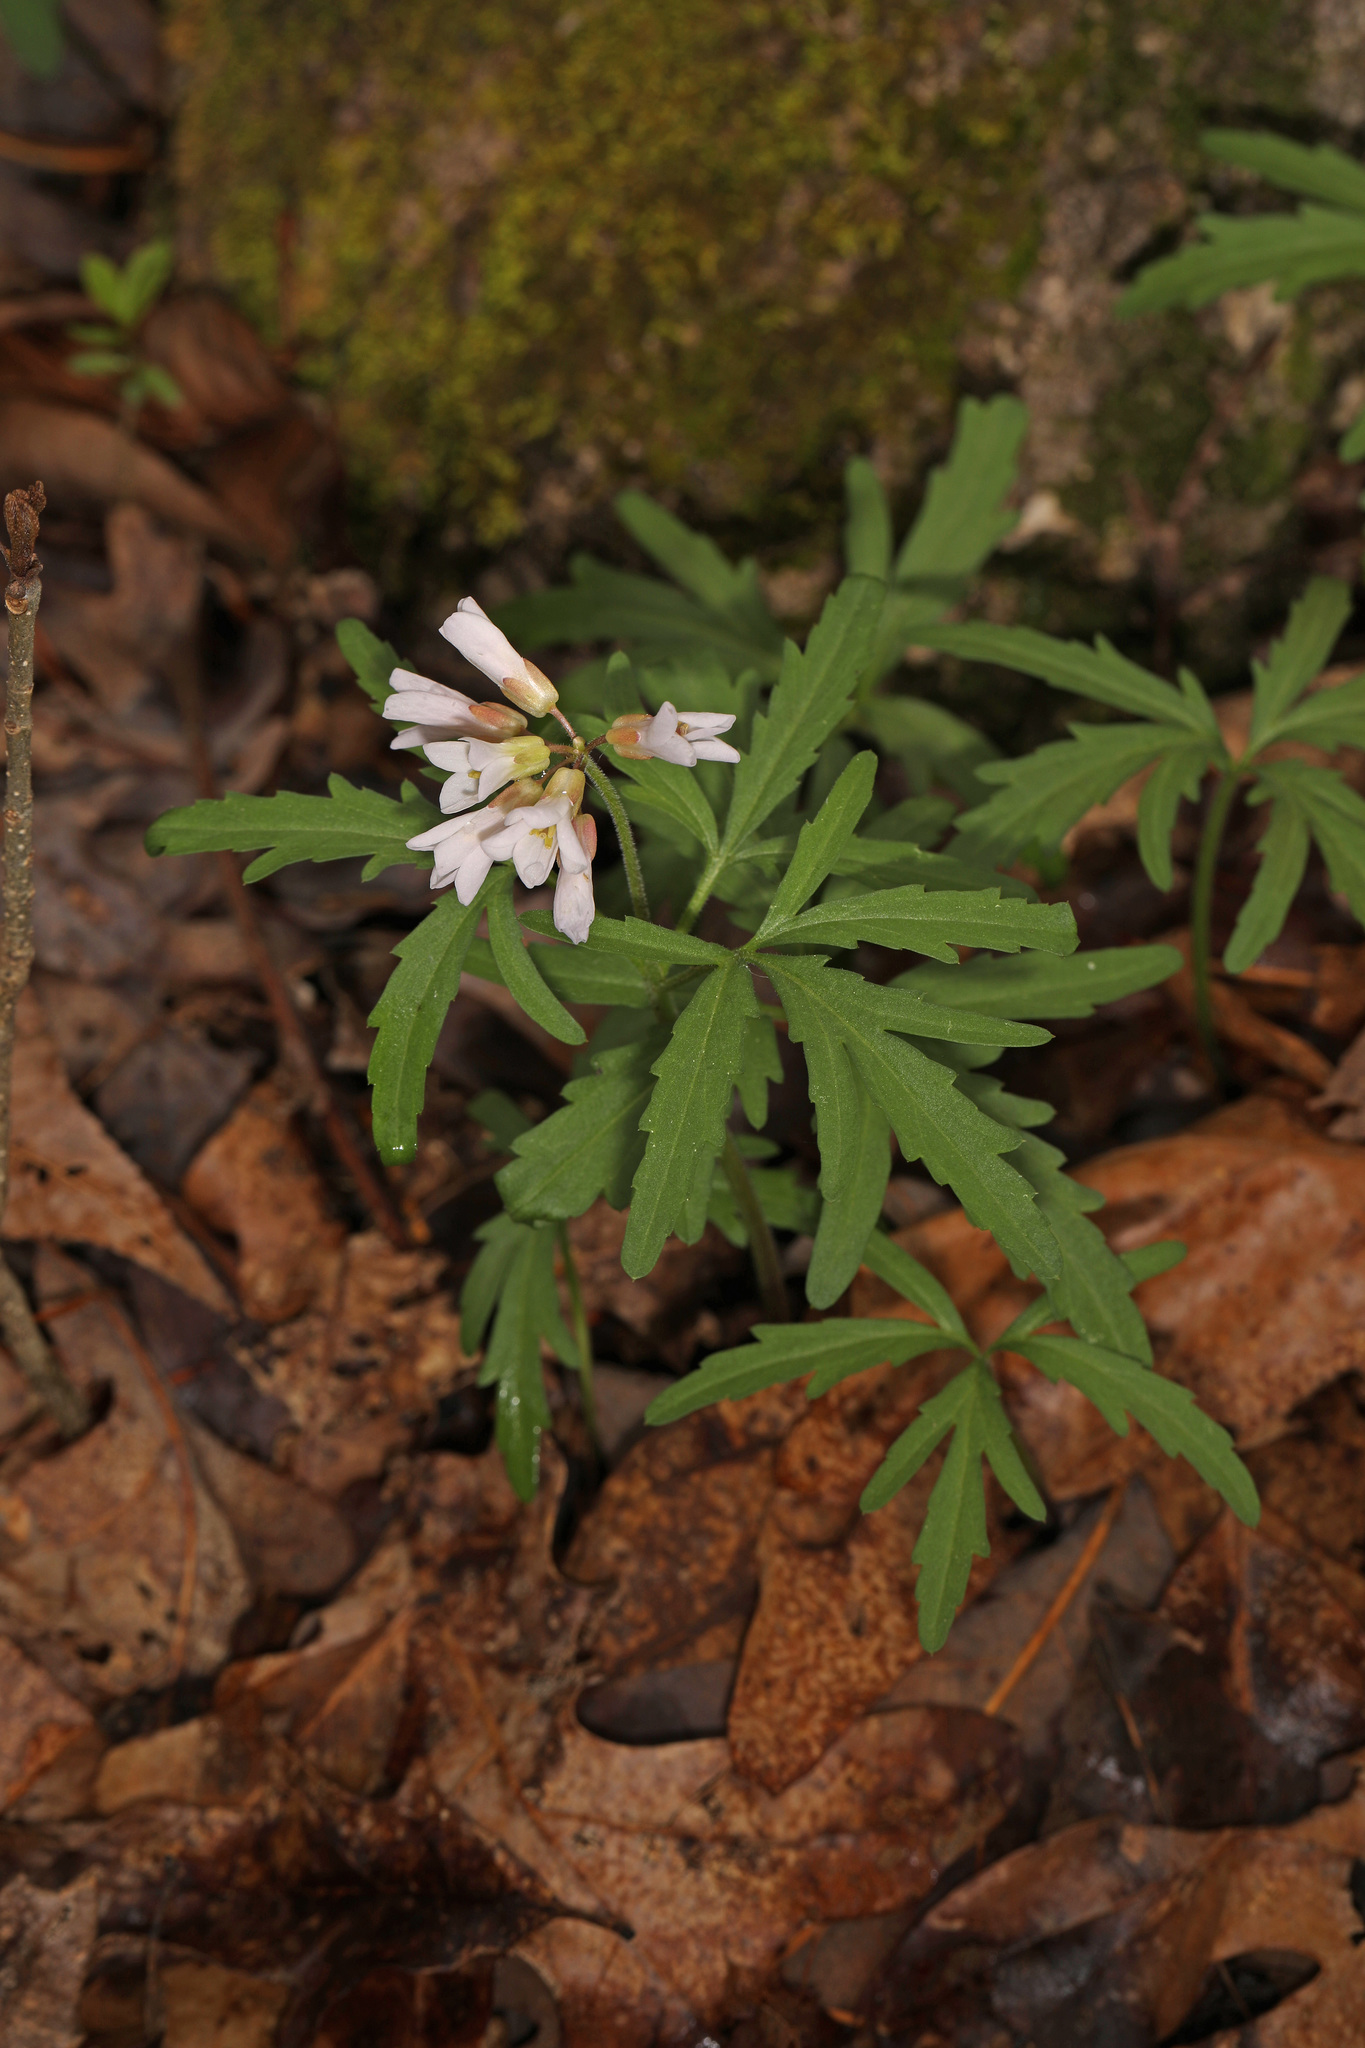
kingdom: Plantae
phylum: Tracheophyta
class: Magnoliopsida
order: Brassicales
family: Brassicaceae
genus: Cardamine
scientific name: Cardamine concatenata
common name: Cut-leaf toothcup
